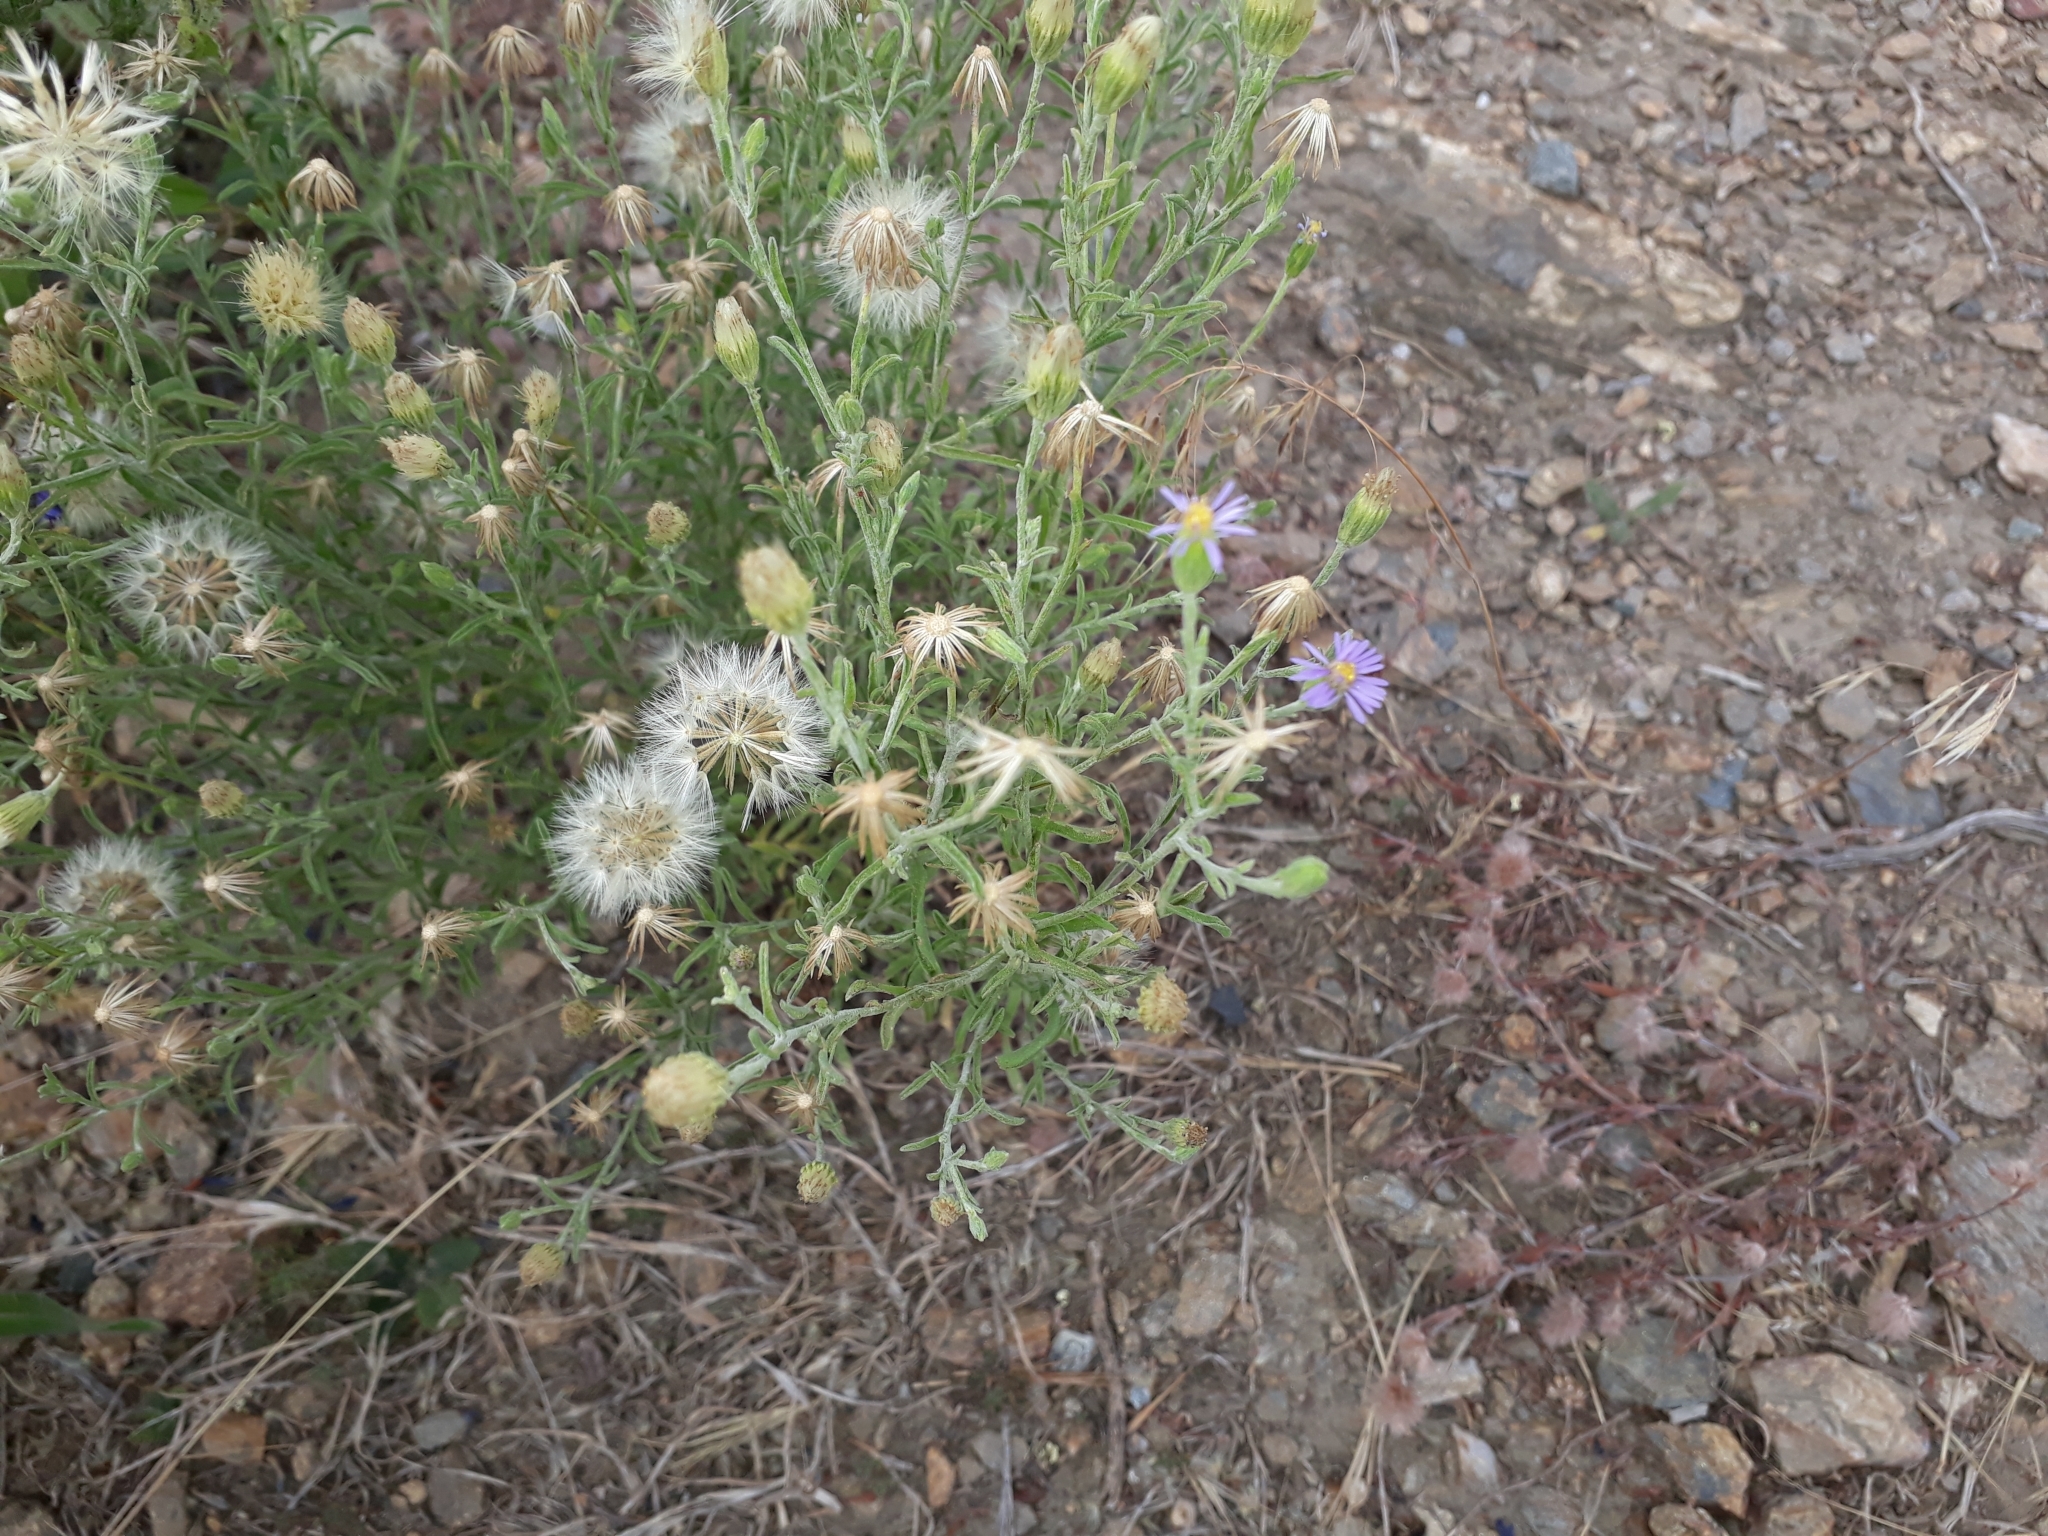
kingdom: Plantae
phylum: Tracheophyta
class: Magnoliopsida
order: Asterales
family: Asteraceae
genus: Vittadinia
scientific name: Vittadinia gracilis
